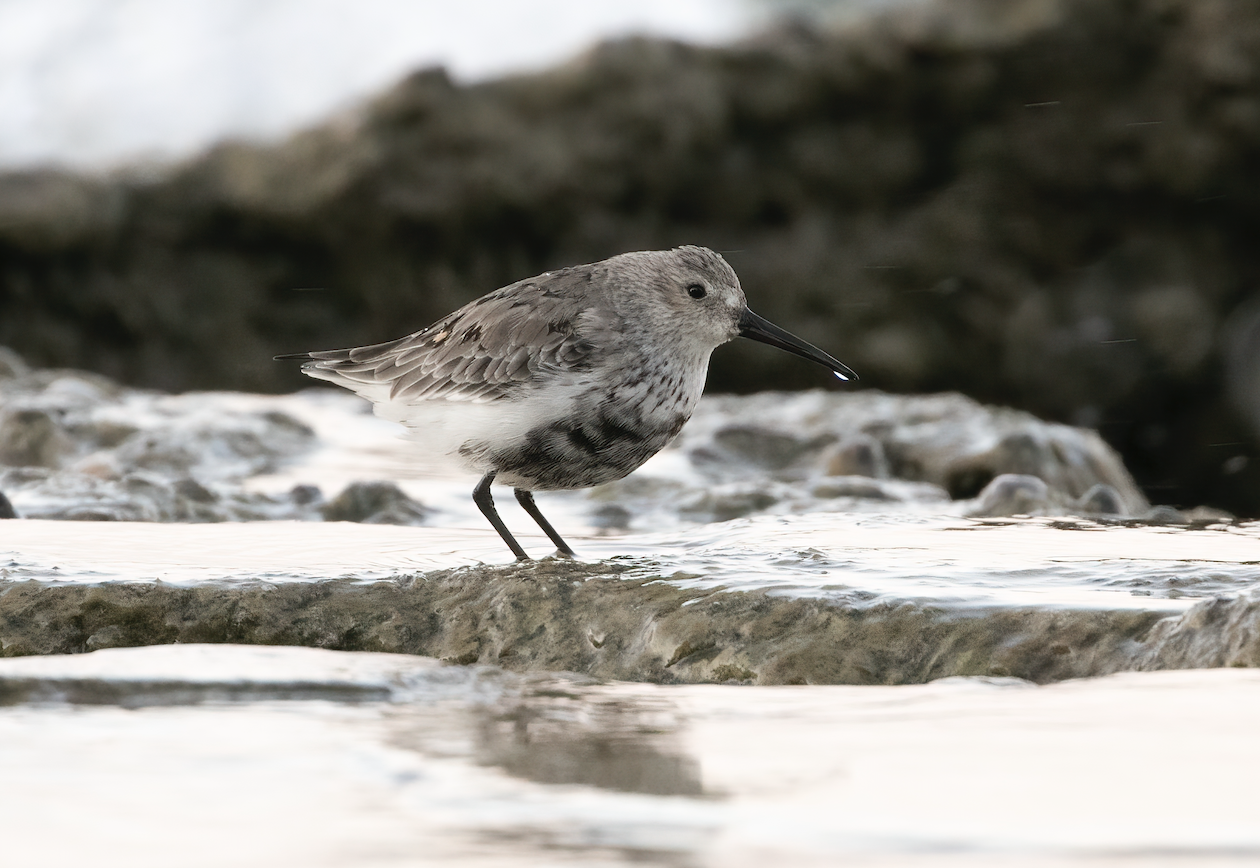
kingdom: Animalia
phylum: Chordata
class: Aves
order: Charadriiformes
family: Scolopacidae
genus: Calidris
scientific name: Calidris alpina
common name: Dunlin
